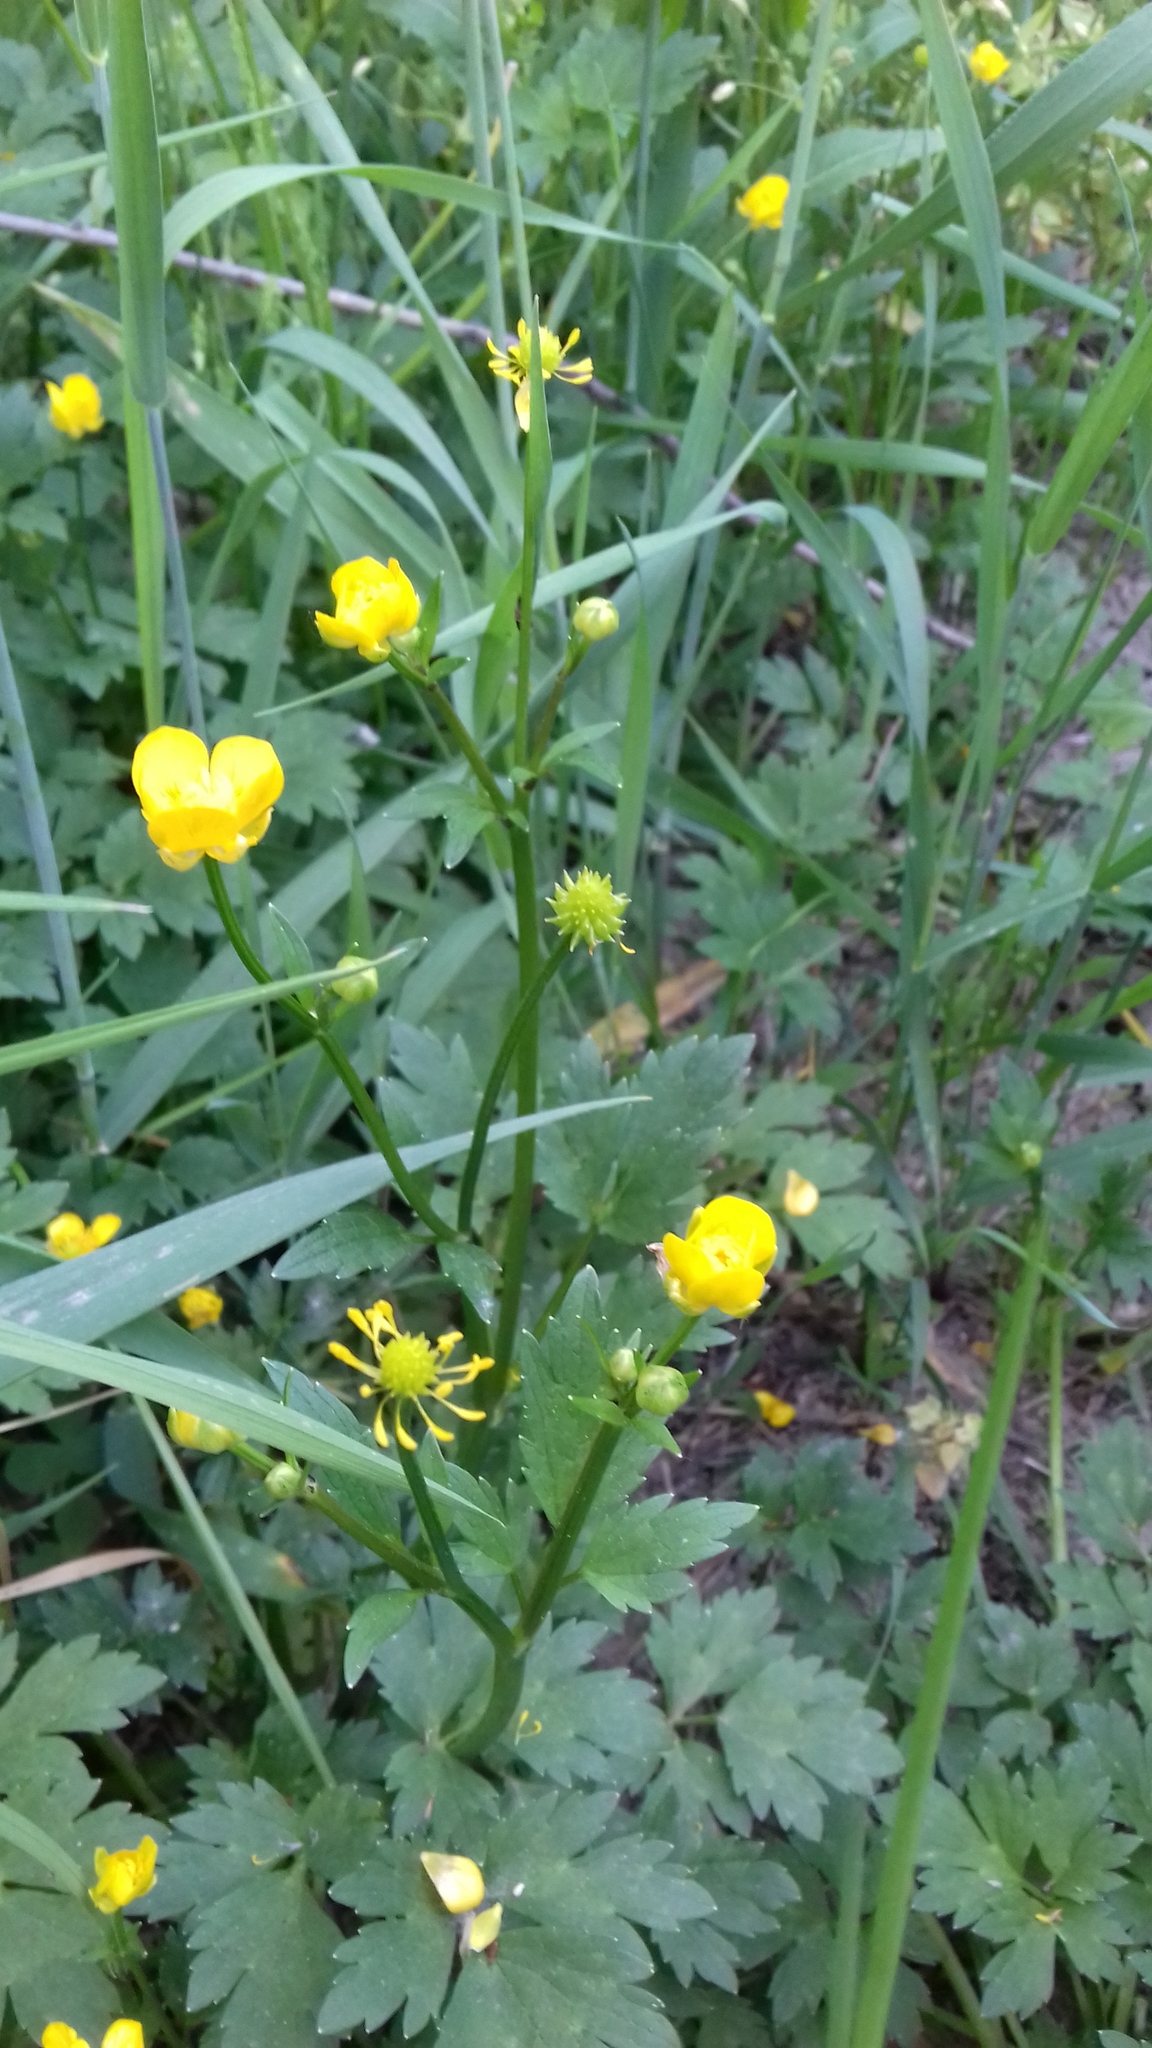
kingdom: Plantae
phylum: Tracheophyta
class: Magnoliopsida
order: Ranunculales
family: Ranunculaceae
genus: Ranunculus
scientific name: Ranunculus repens
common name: Creeping buttercup
